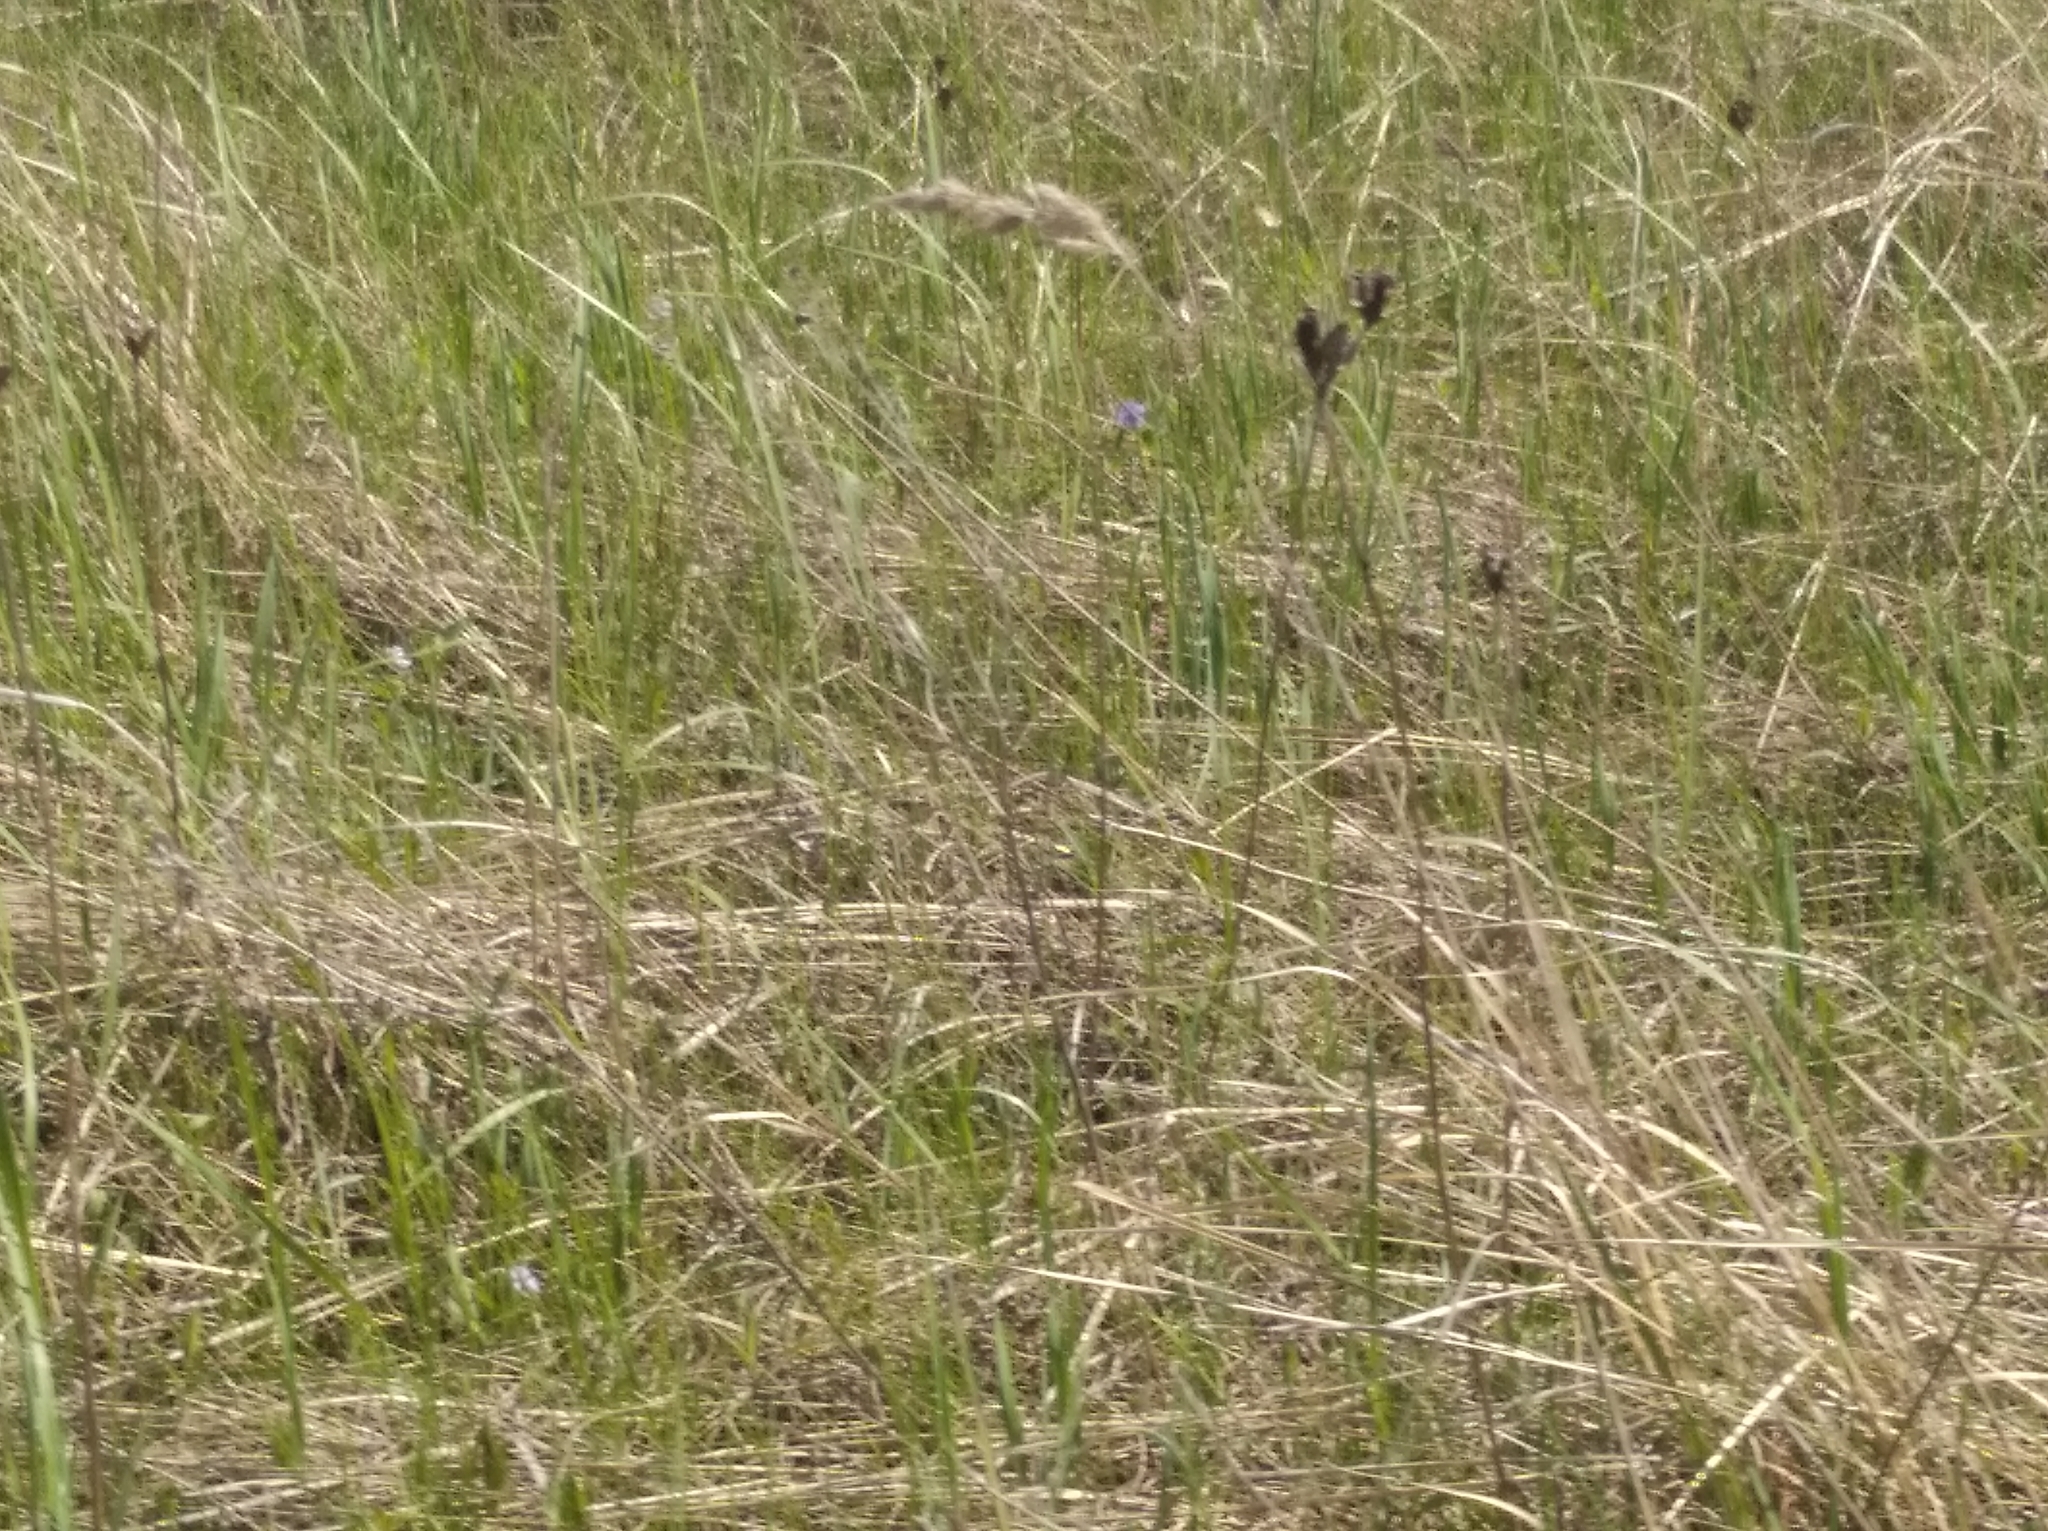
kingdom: Plantae
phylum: Tracheophyta
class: Liliopsida
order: Asparagales
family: Iridaceae
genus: Iris
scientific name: Iris sibirica
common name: Siberian iris
